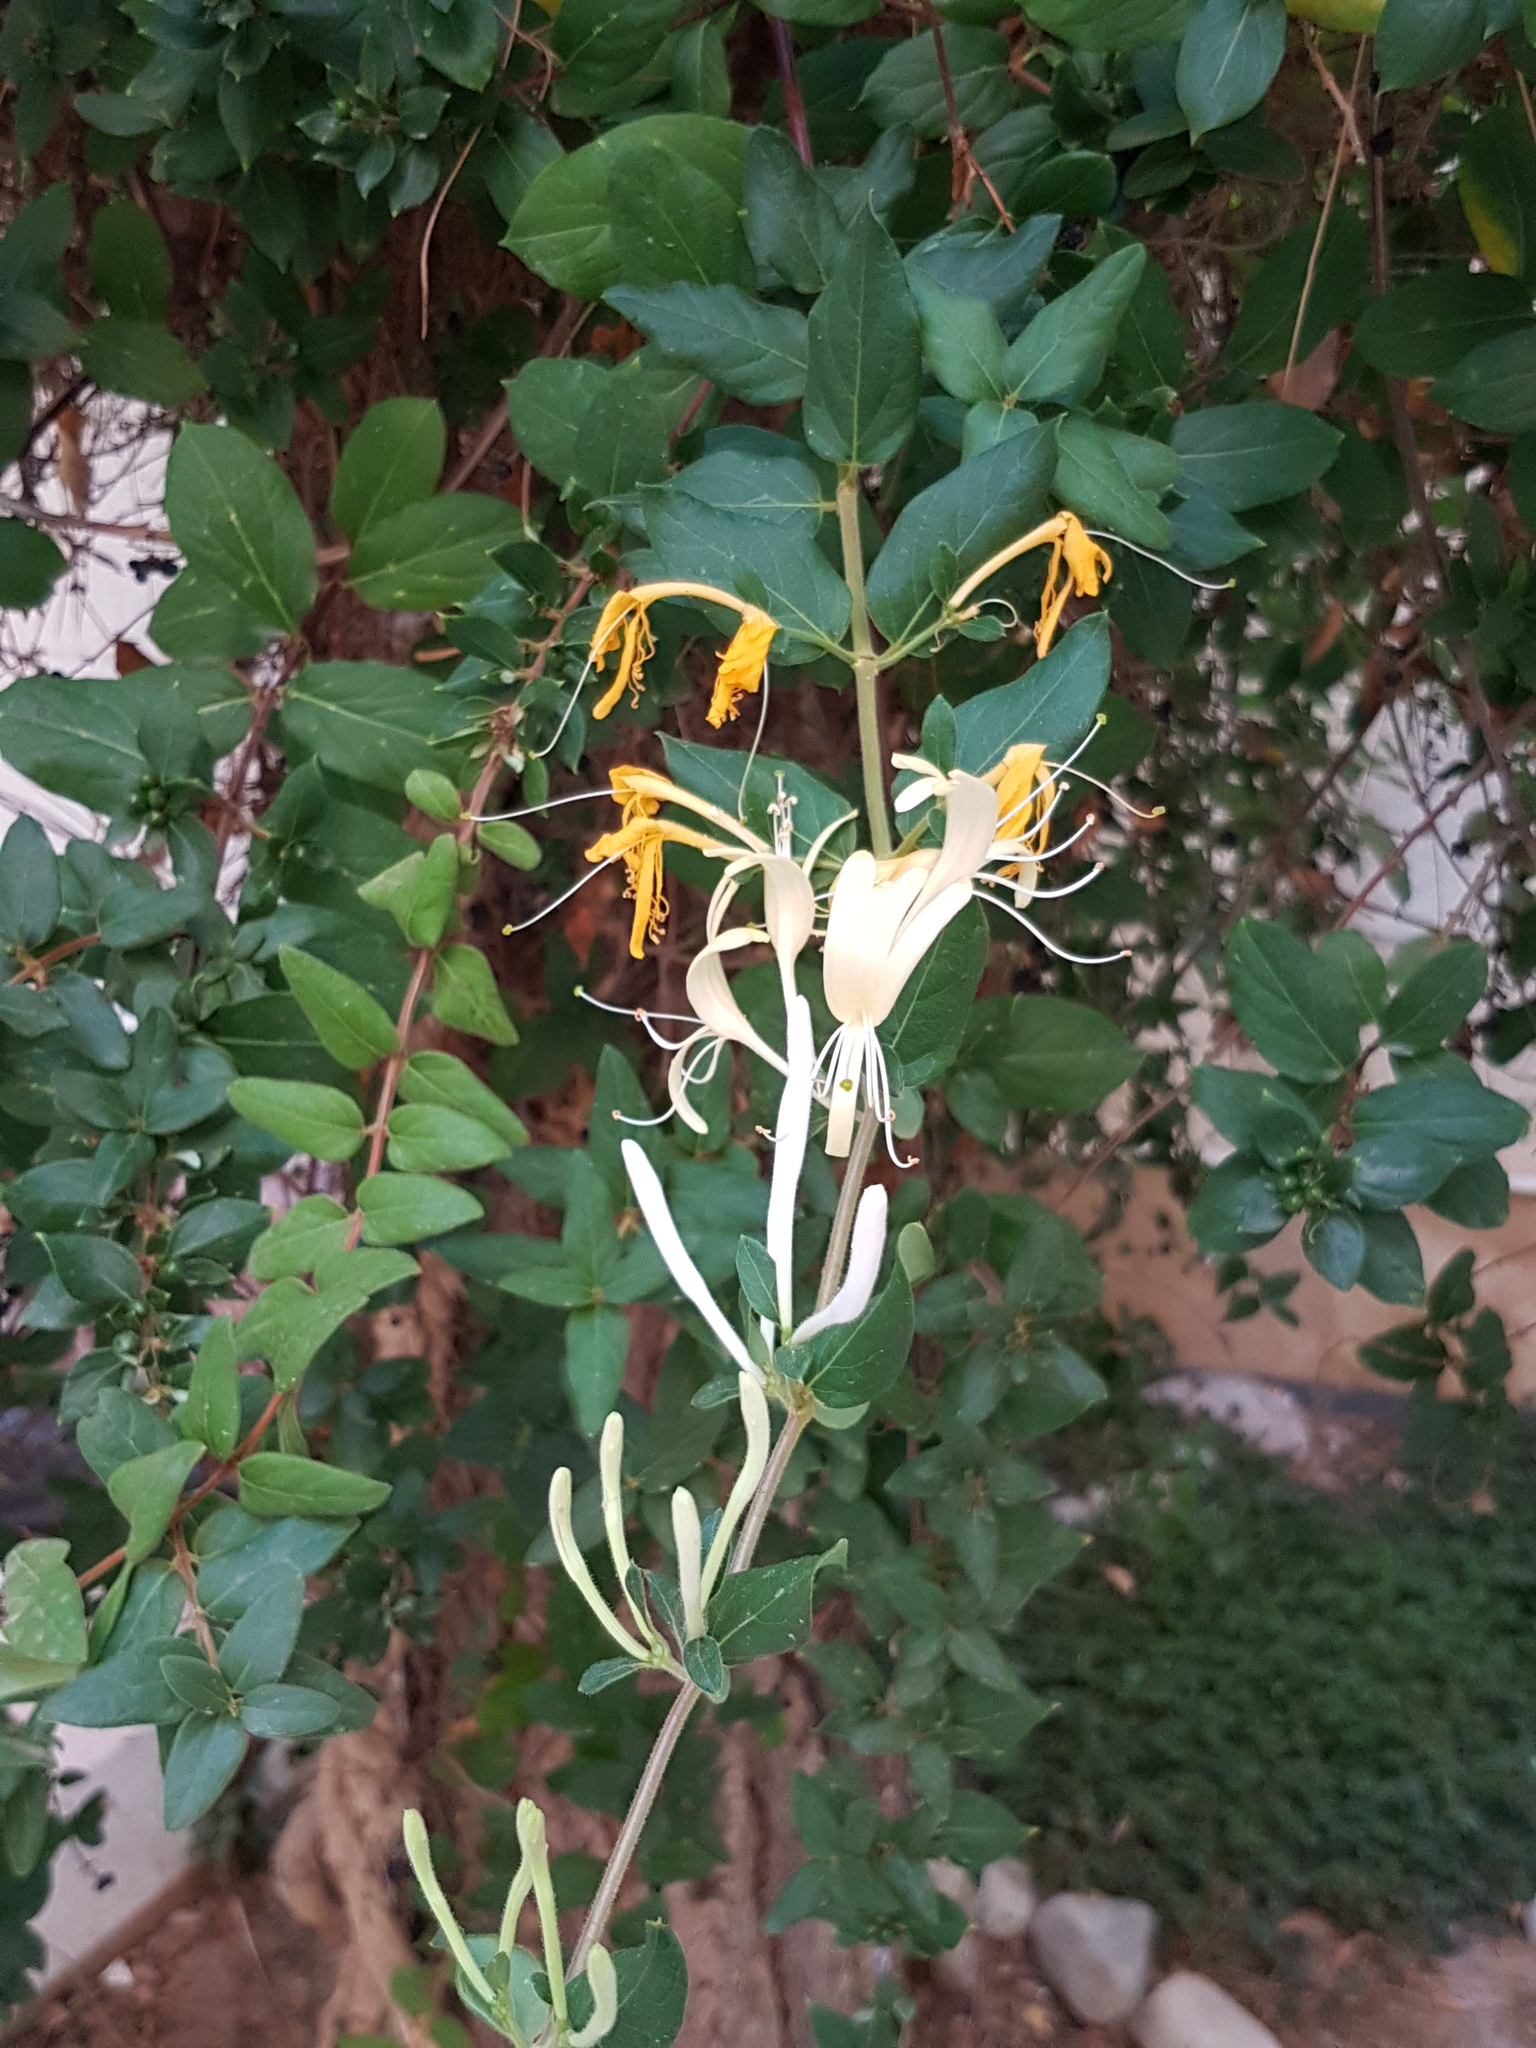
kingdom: Plantae
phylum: Tracheophyta
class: Magnoliopsida
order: Dipsacales
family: Caprifoliaceae
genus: Lonicera
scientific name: Lonicera japonica
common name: Japanese honeysuckle
